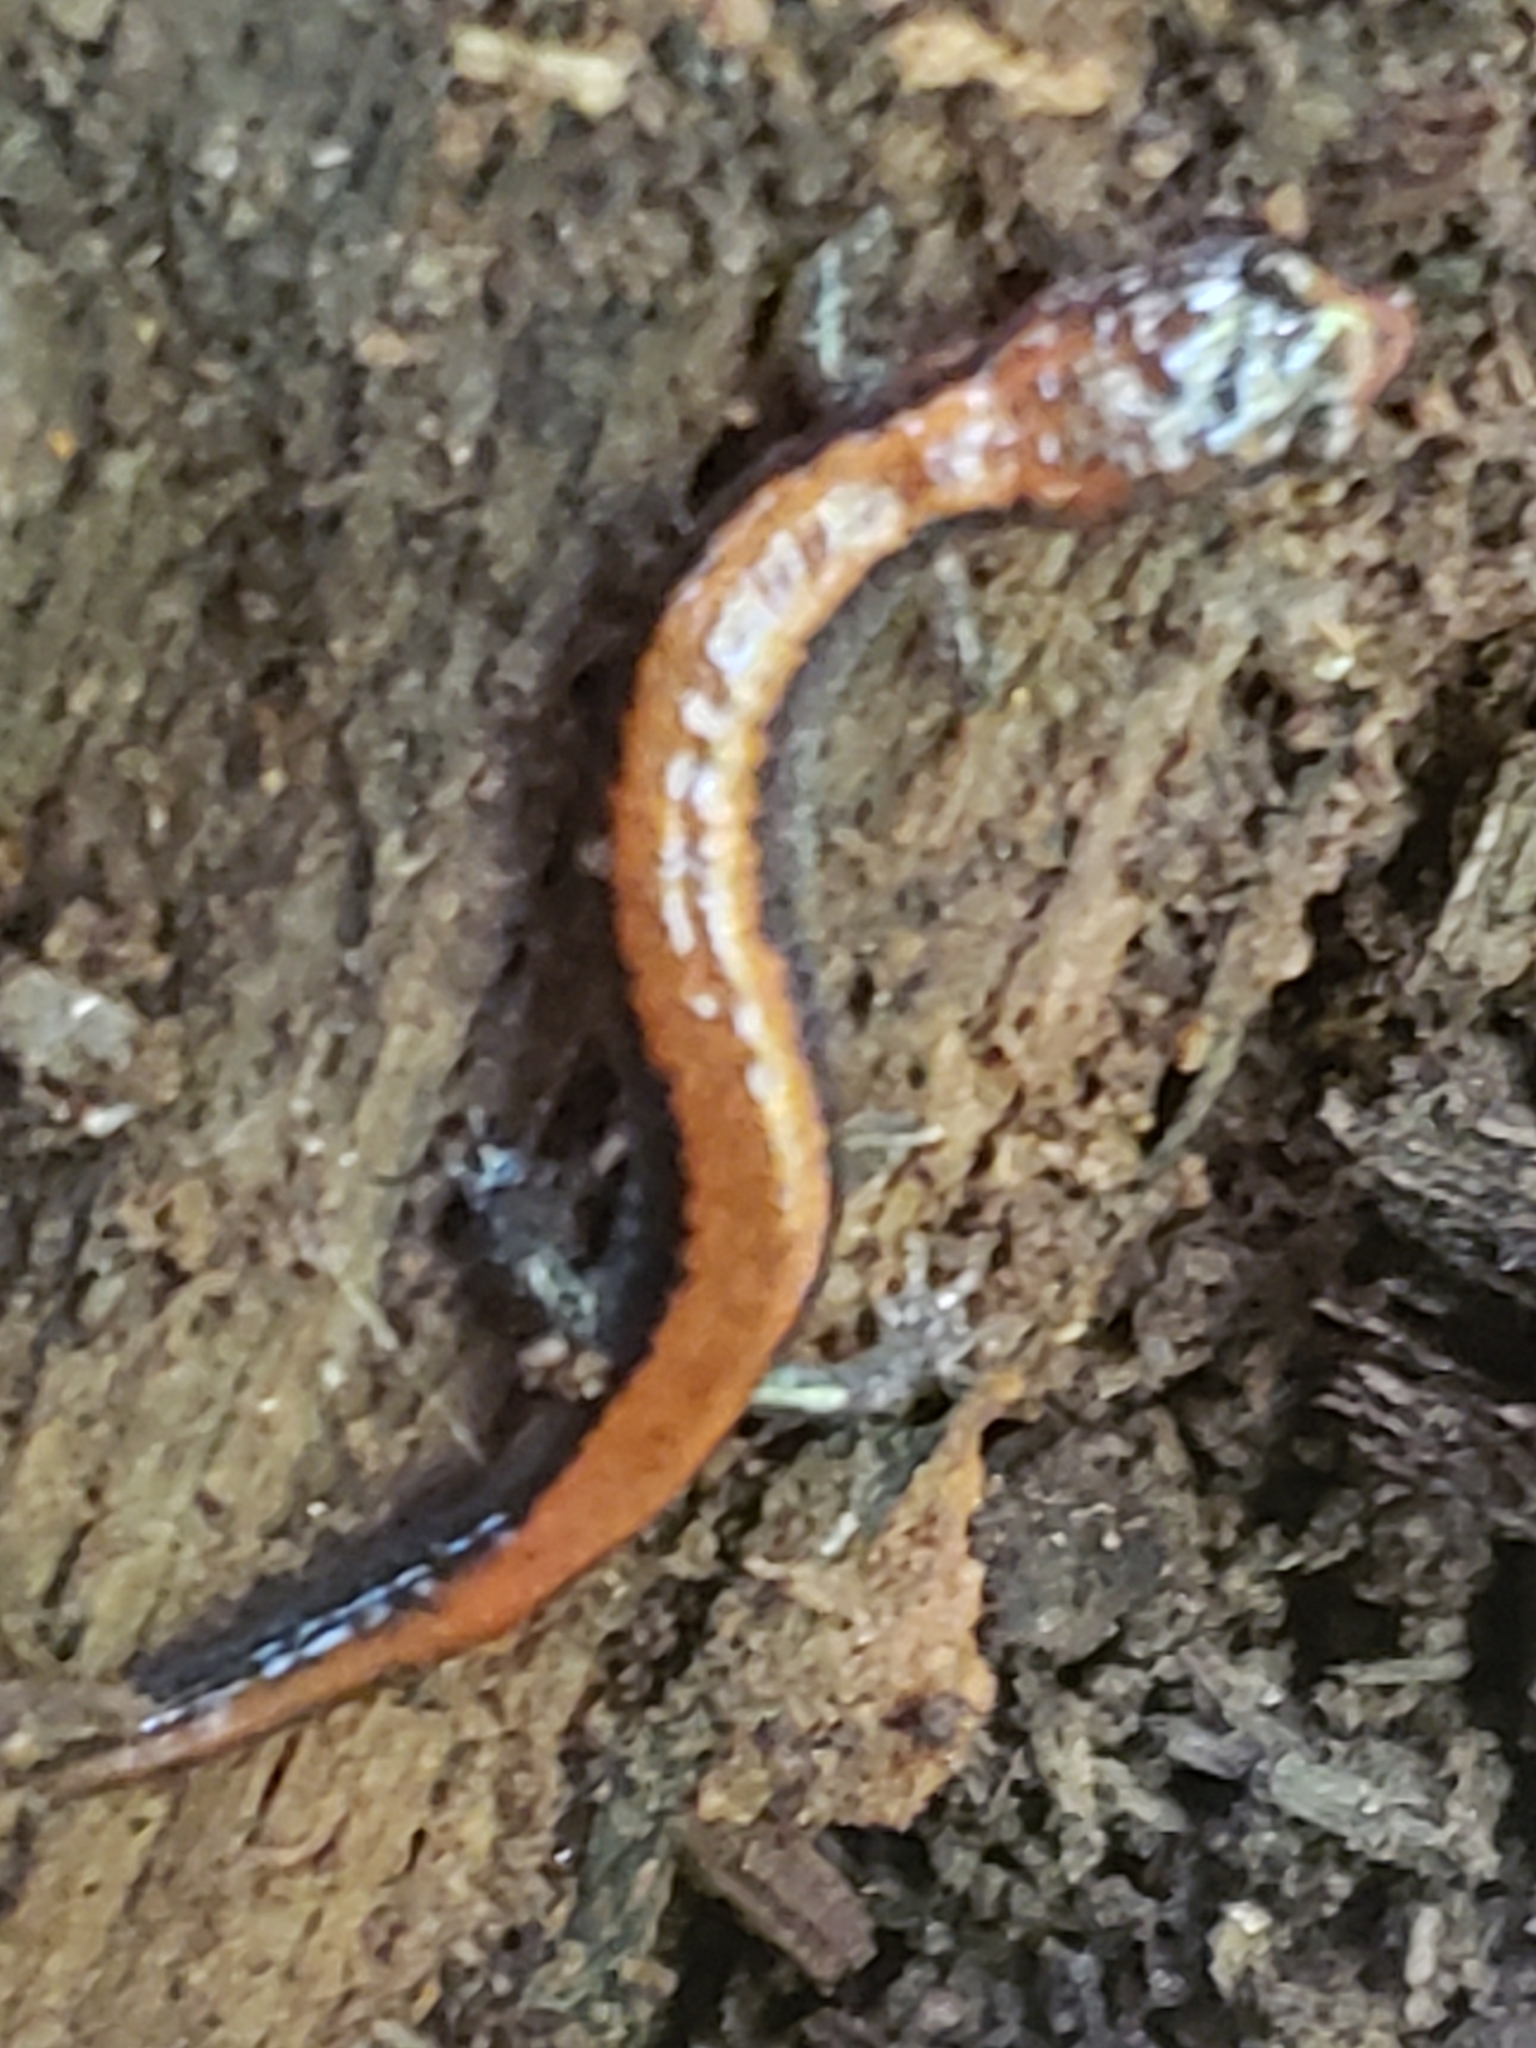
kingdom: Animalia
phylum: Chordata
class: Amphibia
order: Caudata
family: Plethodontidae
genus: Plethodon
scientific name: Plethodon cinereus
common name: Redback salamander
